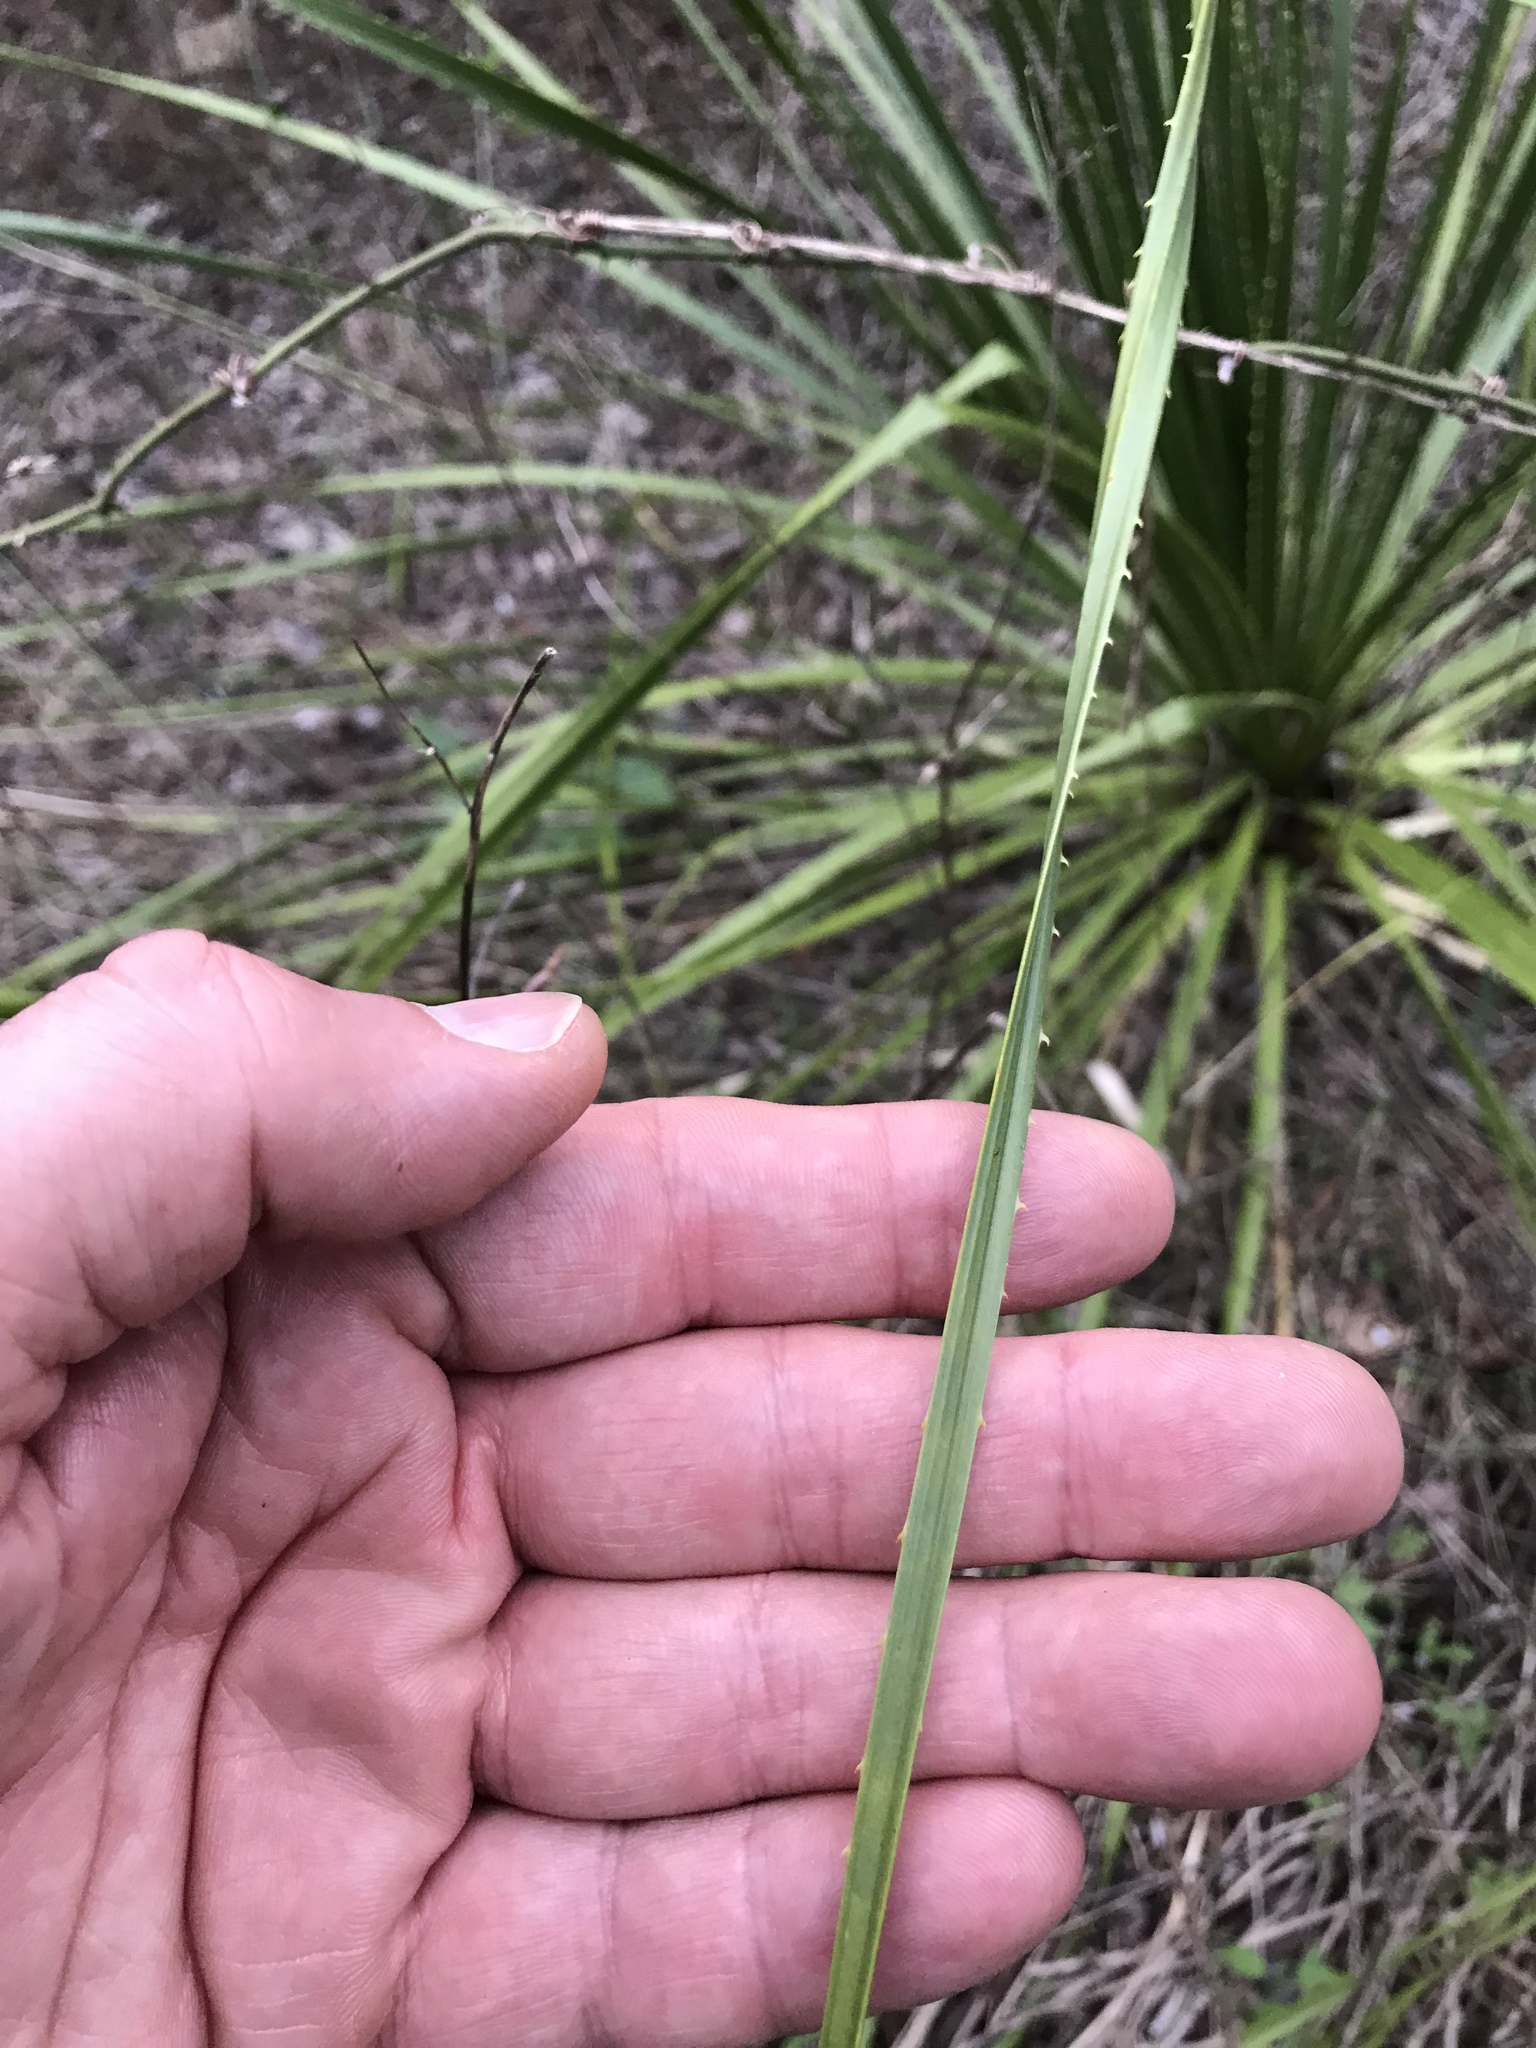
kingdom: Plantae
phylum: Tracheophyta
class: Liliopsida
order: Asparagales
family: Asparagaceae
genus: Dasylirion
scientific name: Dasylirion texanum
